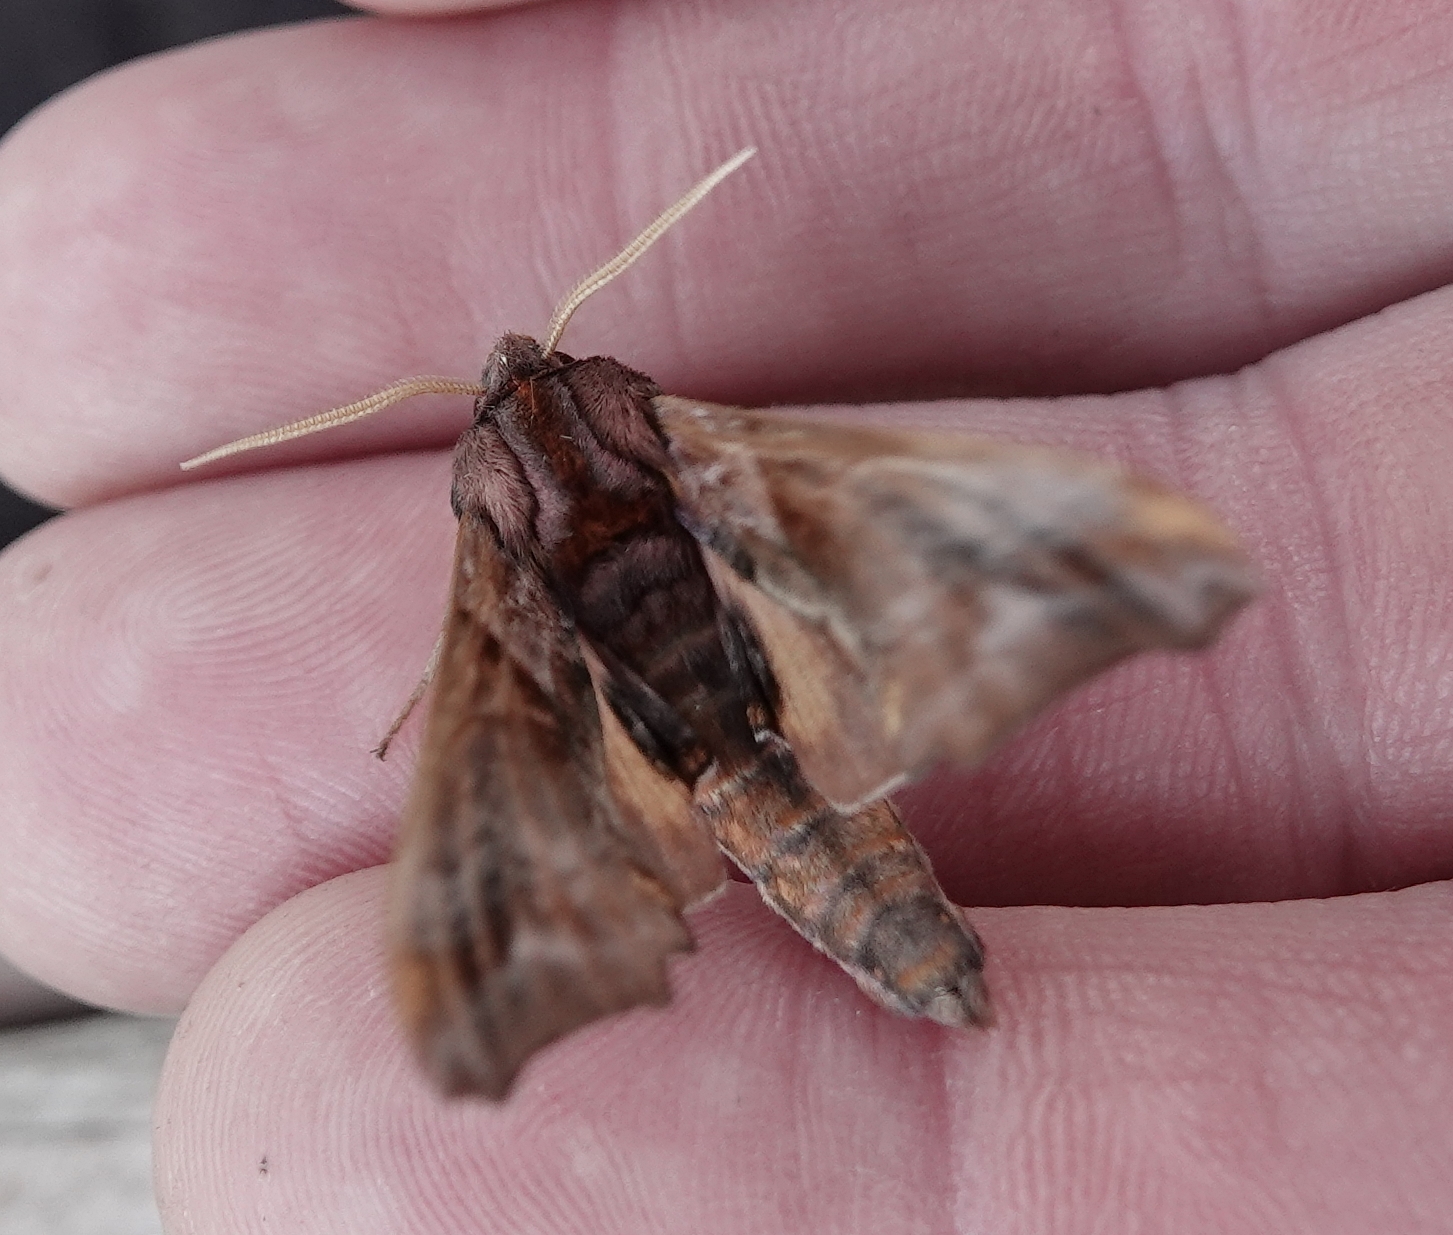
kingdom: Animalia
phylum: Arthropoda
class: Insecta
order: Lepidoptera
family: Sphingidae
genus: Paonias
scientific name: Paonias myops
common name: Small-eyed sphinx
